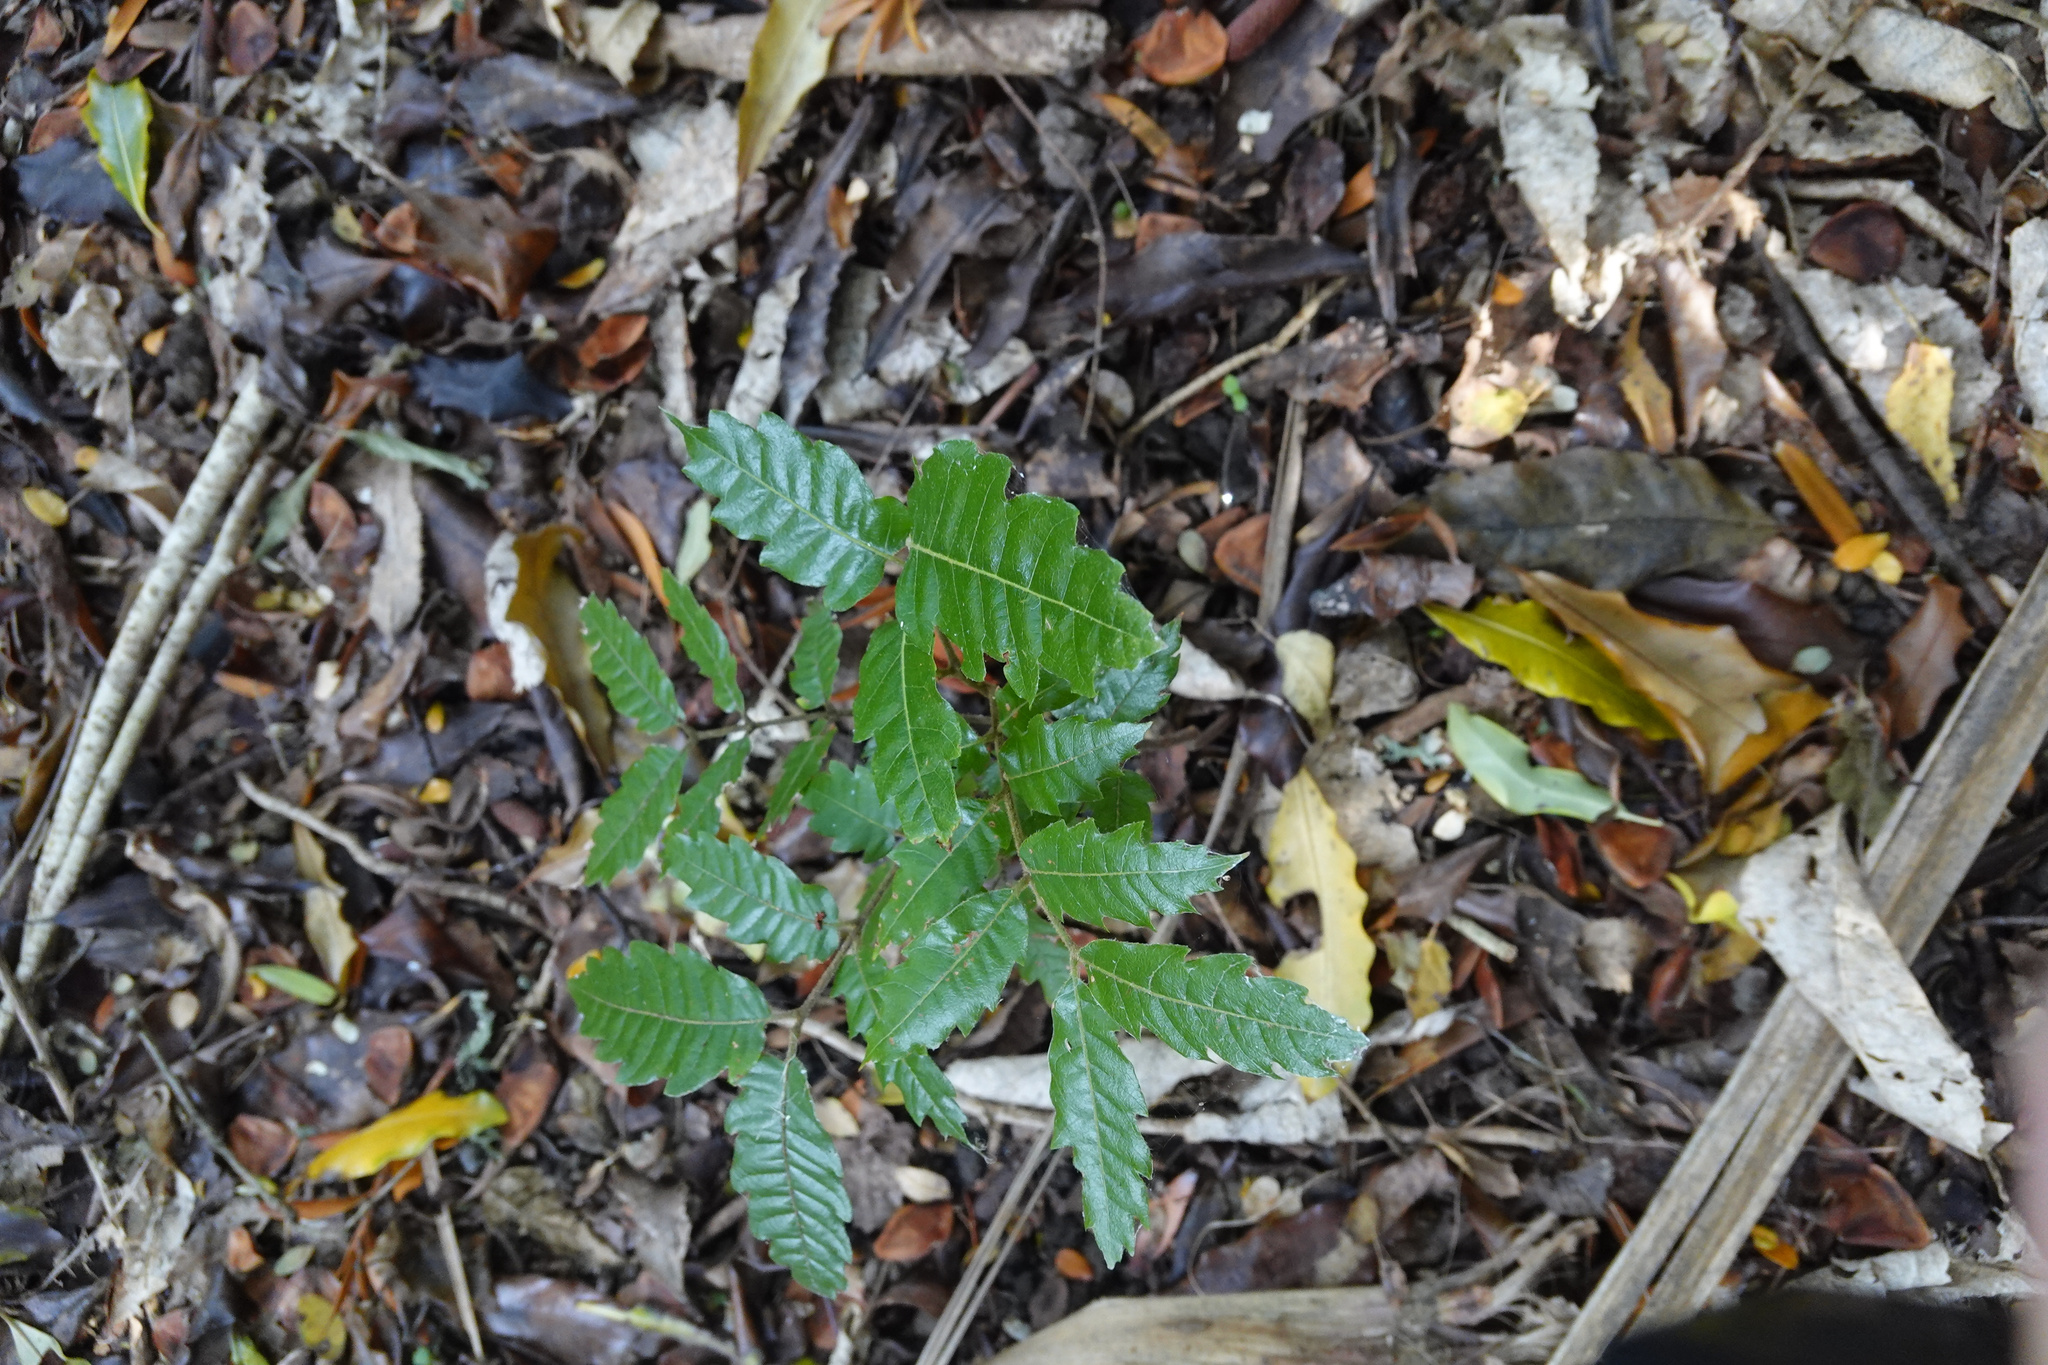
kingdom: Plantae
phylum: Tracheophyta
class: Magnoliopsida
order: Sapindales
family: Sapindaceae
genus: Alectryon
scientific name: Alectryon excelsus
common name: Three kings titoki
